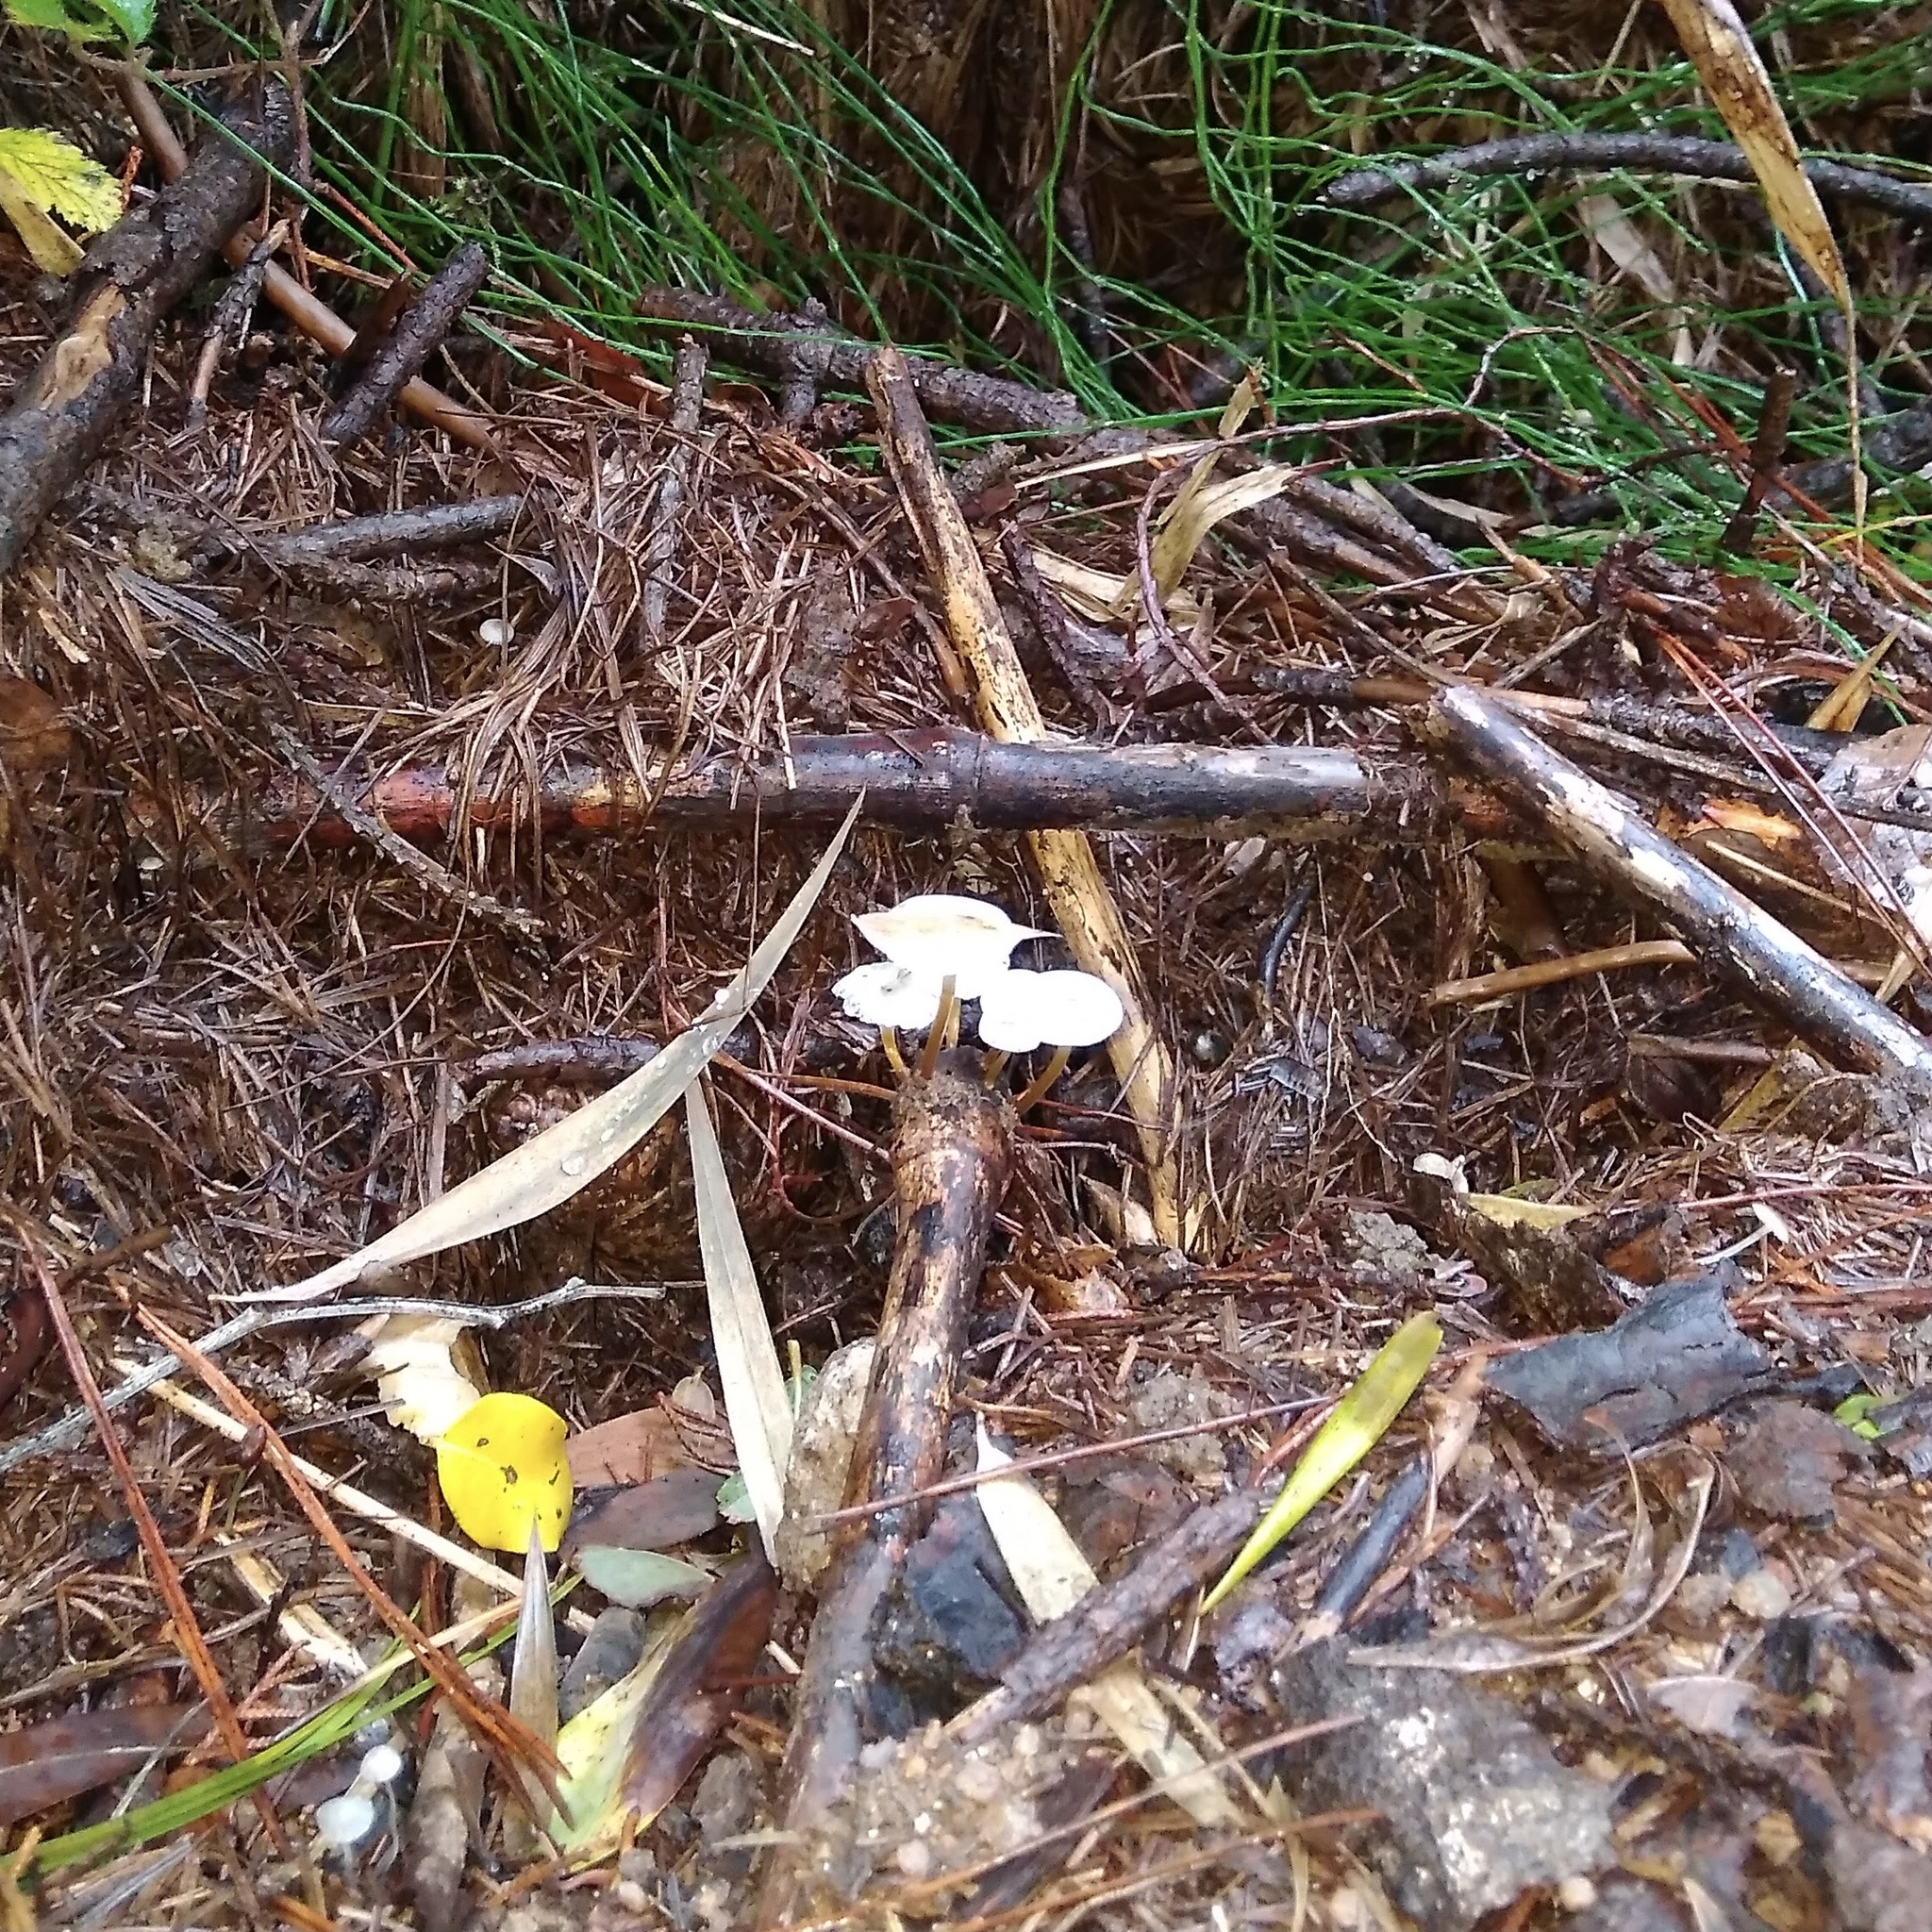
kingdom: Fungi
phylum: Basidiomycota
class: Agaricomycetes
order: Agaricales
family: Mycenaceae
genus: Mycena
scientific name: Mycena subulifera
